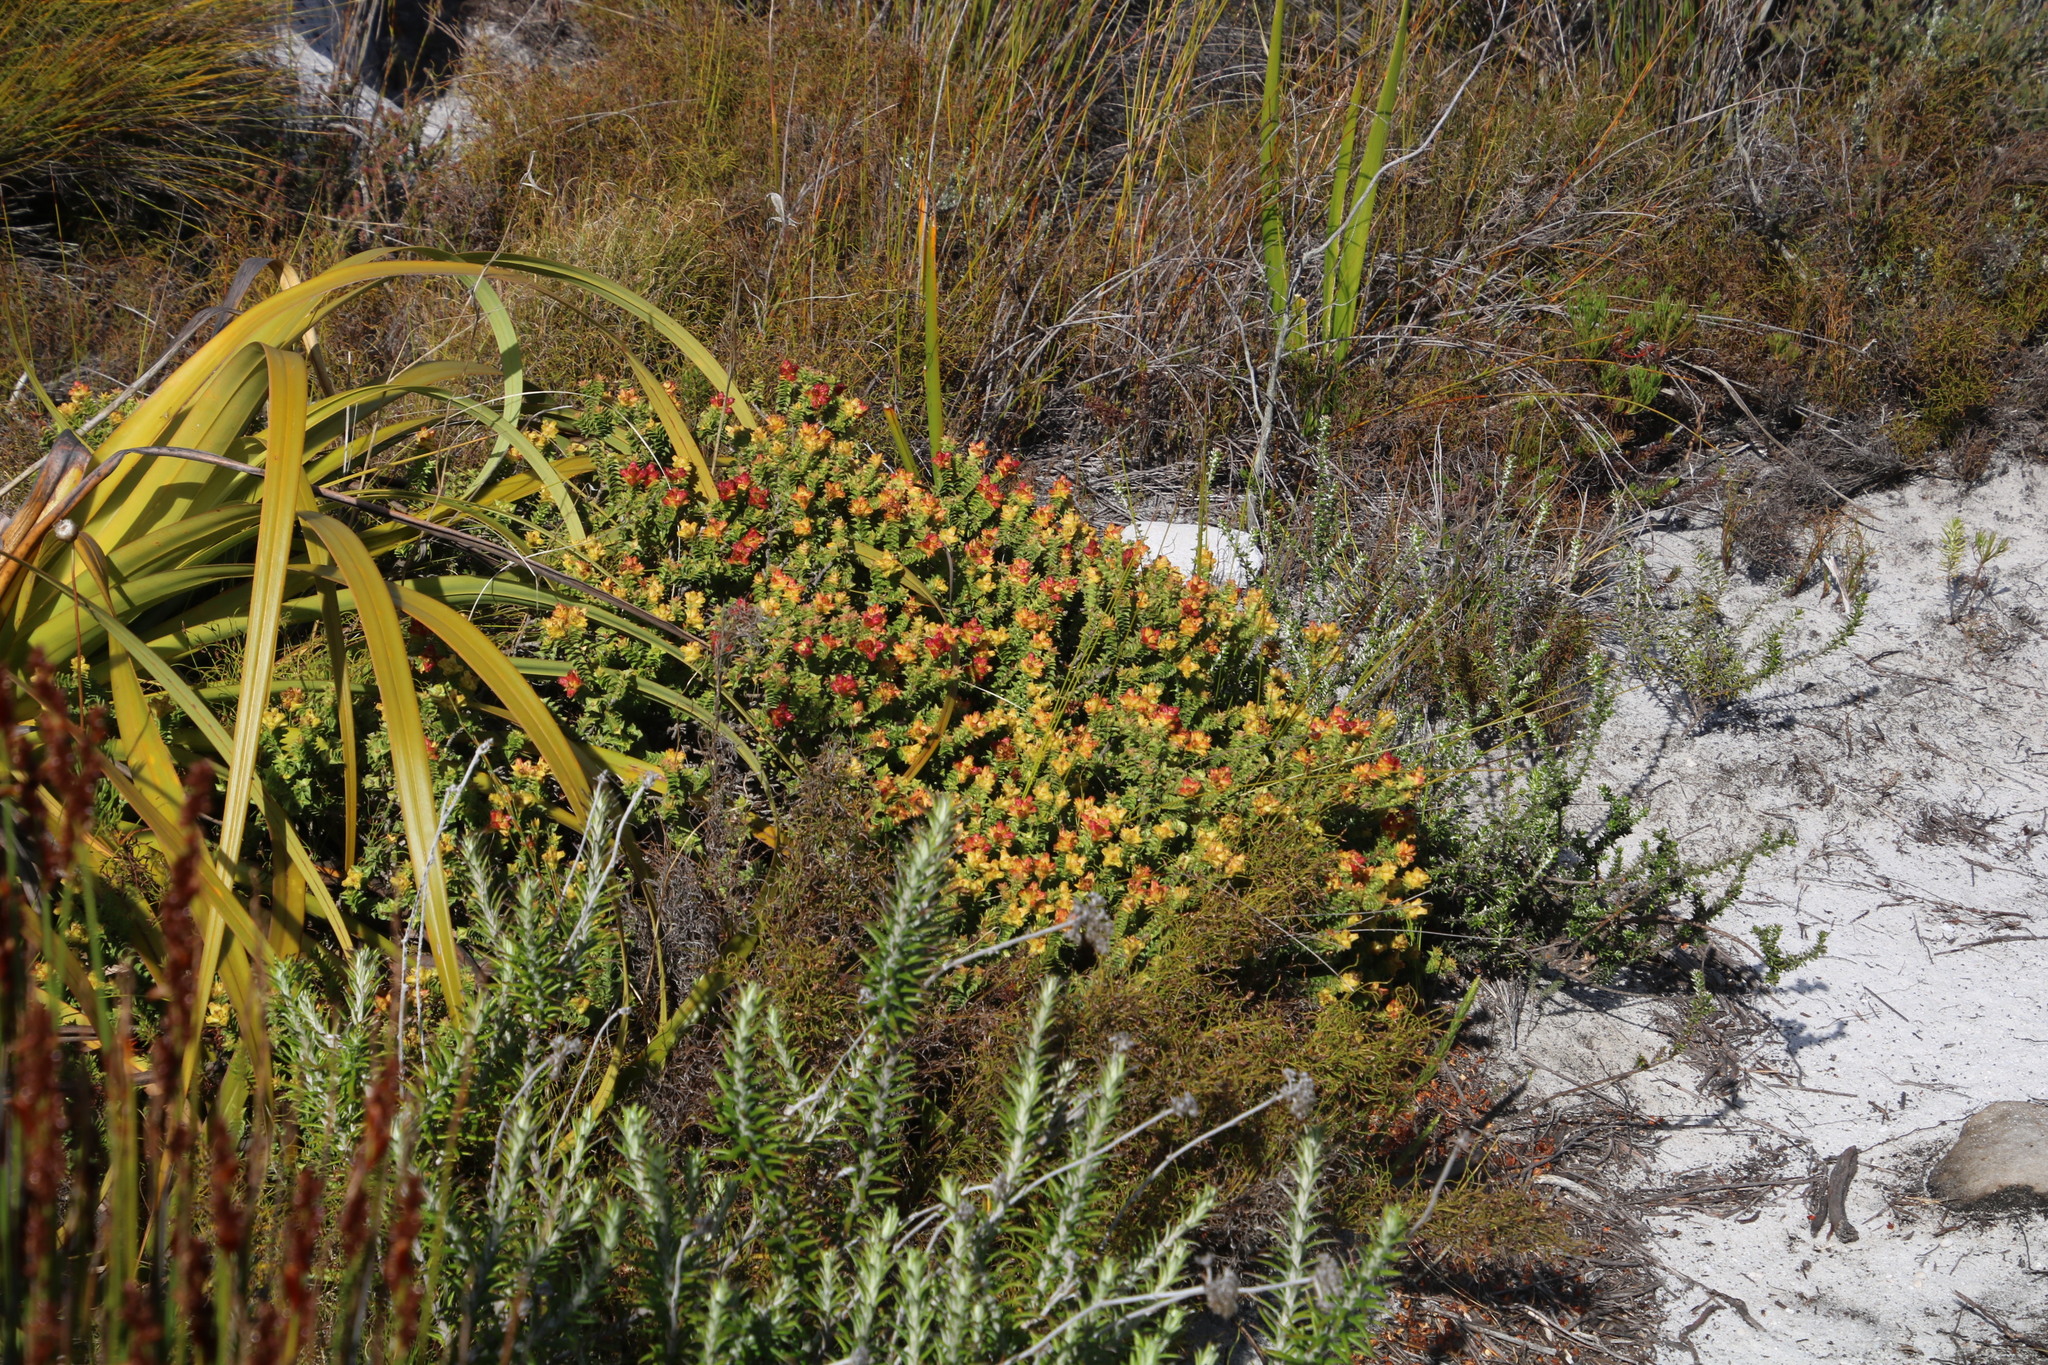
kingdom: Plantae
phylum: Tracheophyta
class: Magnoliopsida
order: Myrtales
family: Penaeaceae
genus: Penaea
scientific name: Penaea mucronata
